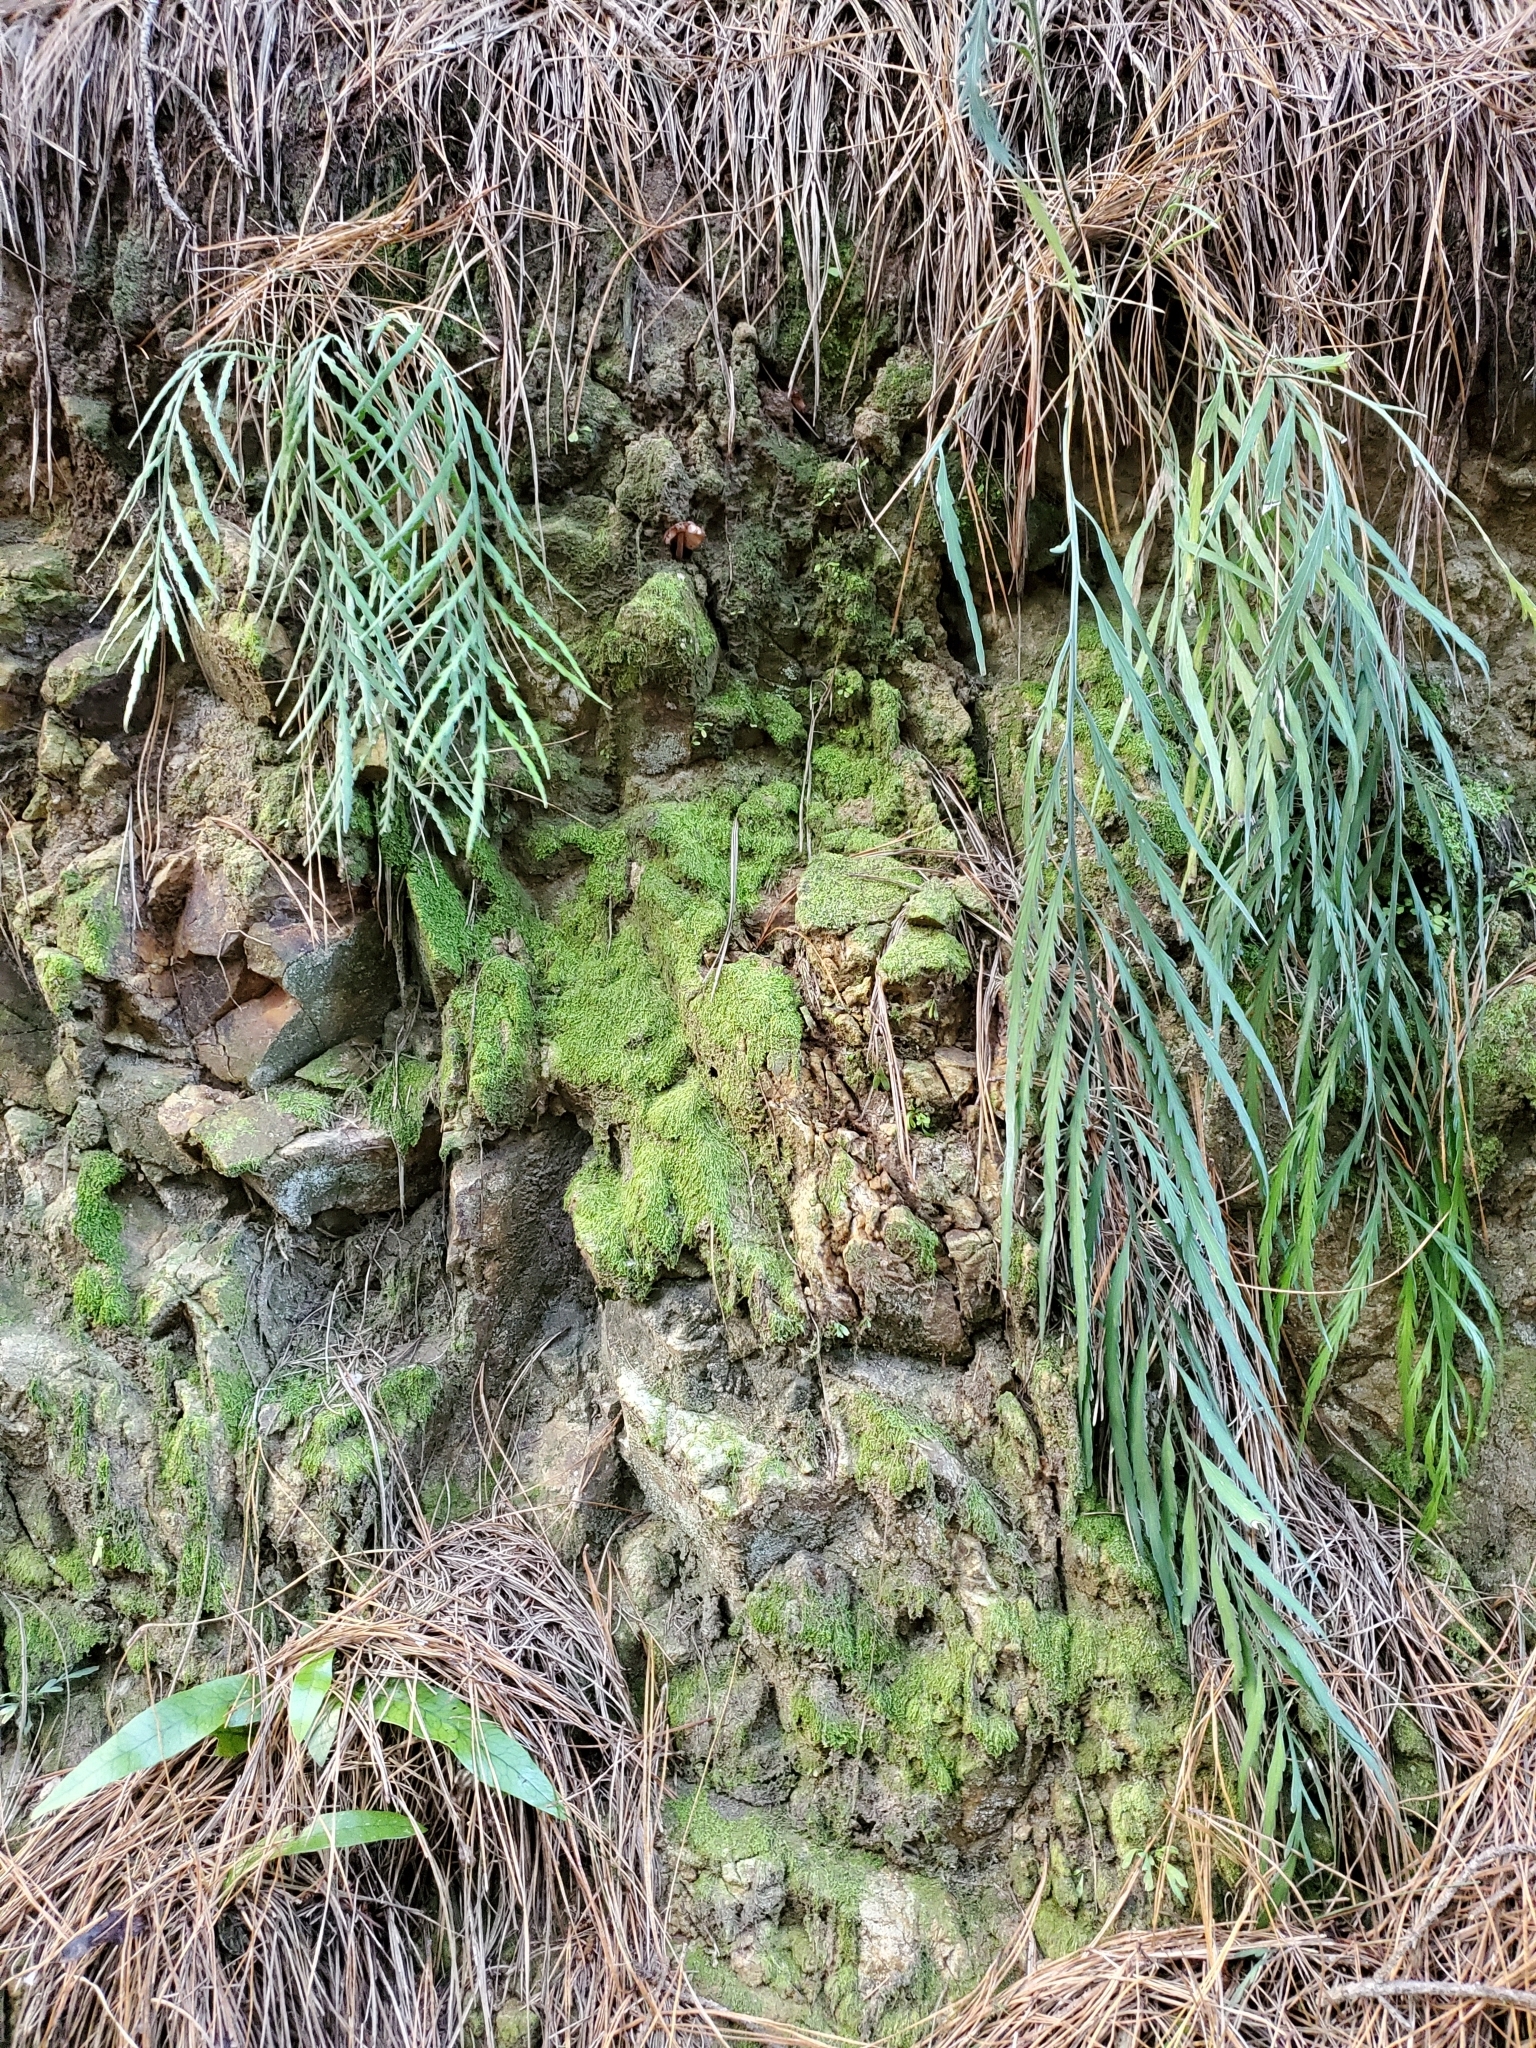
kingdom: Plantae
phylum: Tracheophyta
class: Polypodiopsida
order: Polypodiales
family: Aspleniaceae
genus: Asplenium
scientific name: Asplenium flaccidum
